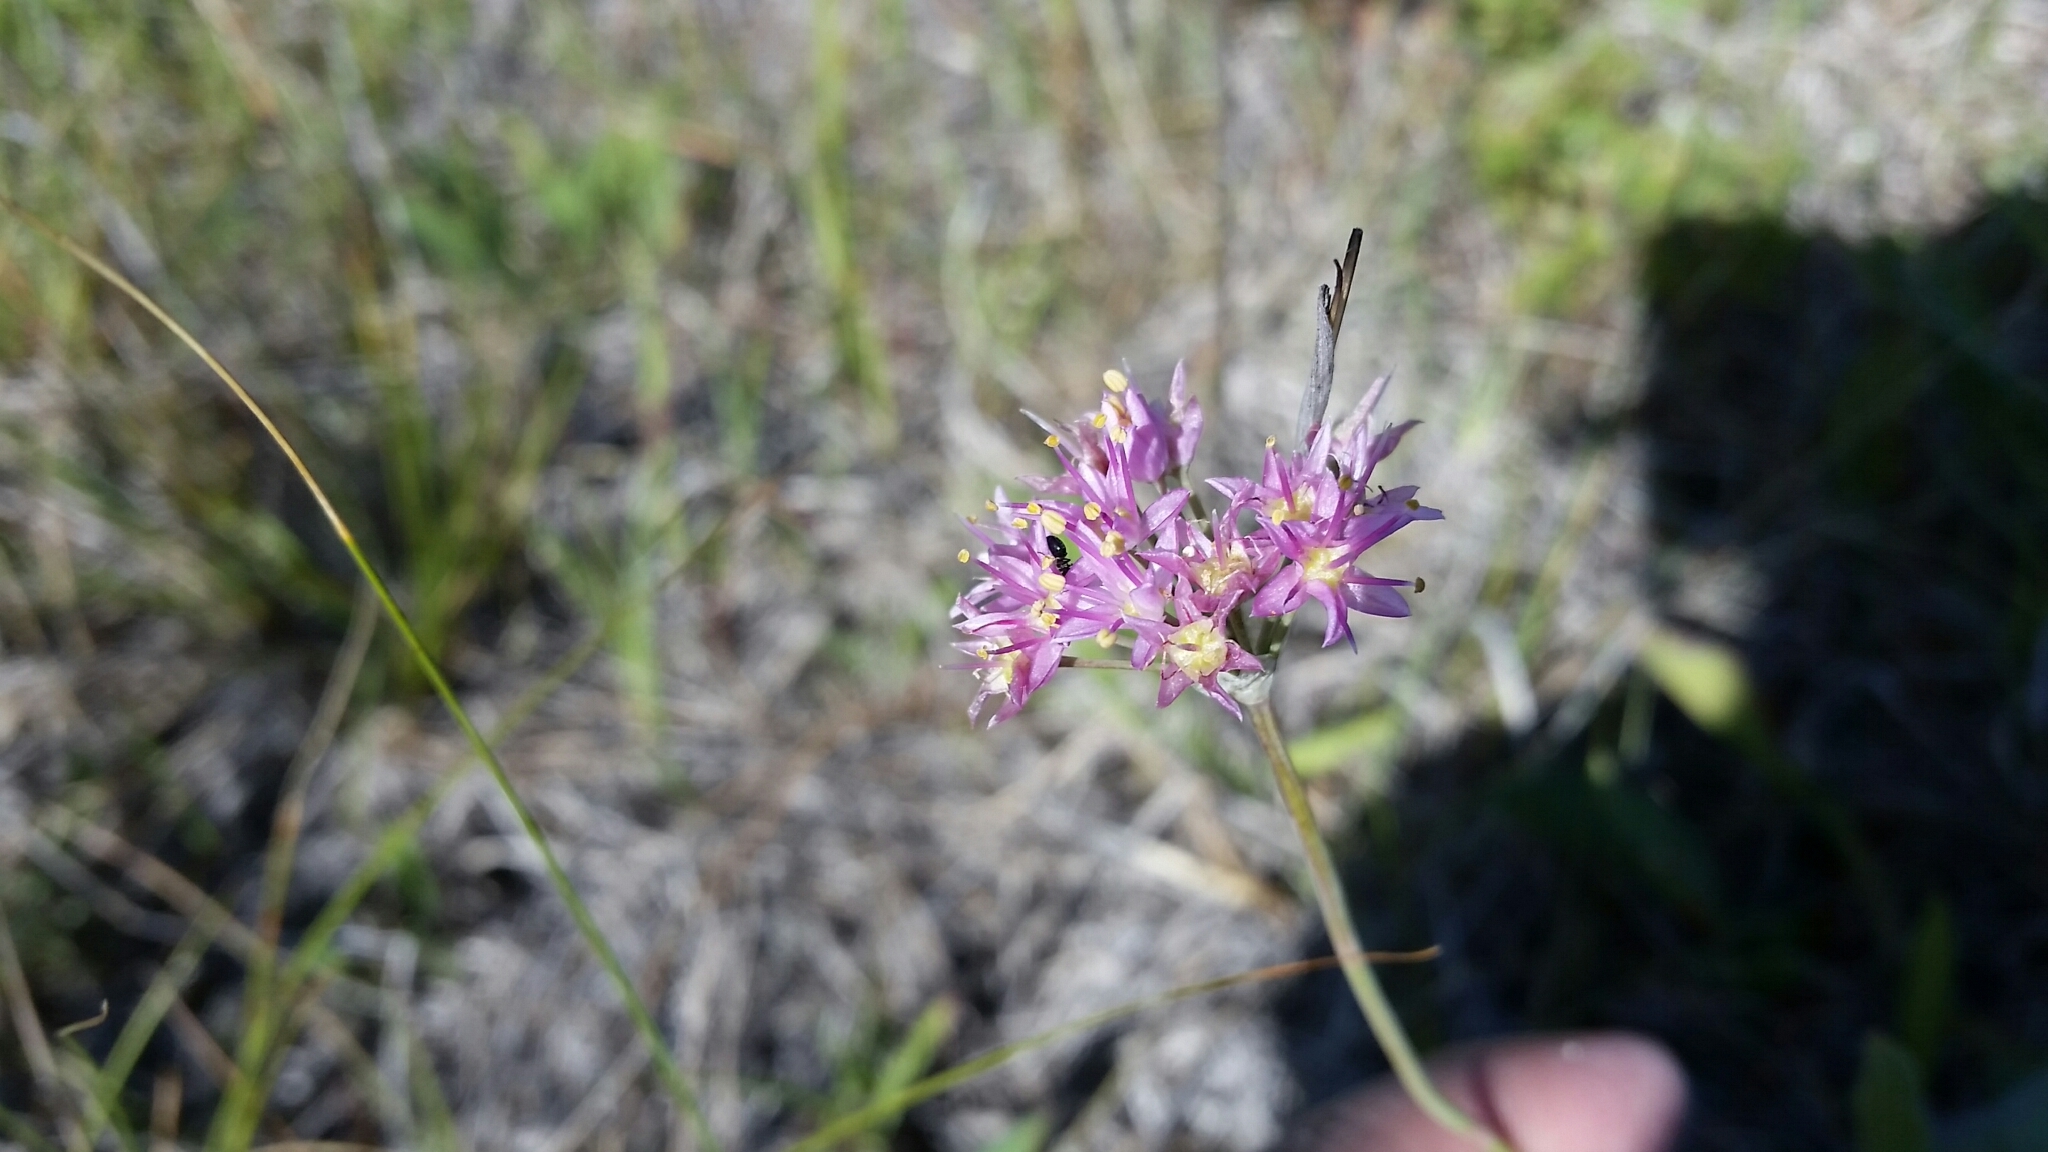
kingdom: Plantae
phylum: Tracheophyta
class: Liliopsida
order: Asparagales
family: Amaryllidaceae
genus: Allium
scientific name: Allium stellatum
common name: Autumn onion
